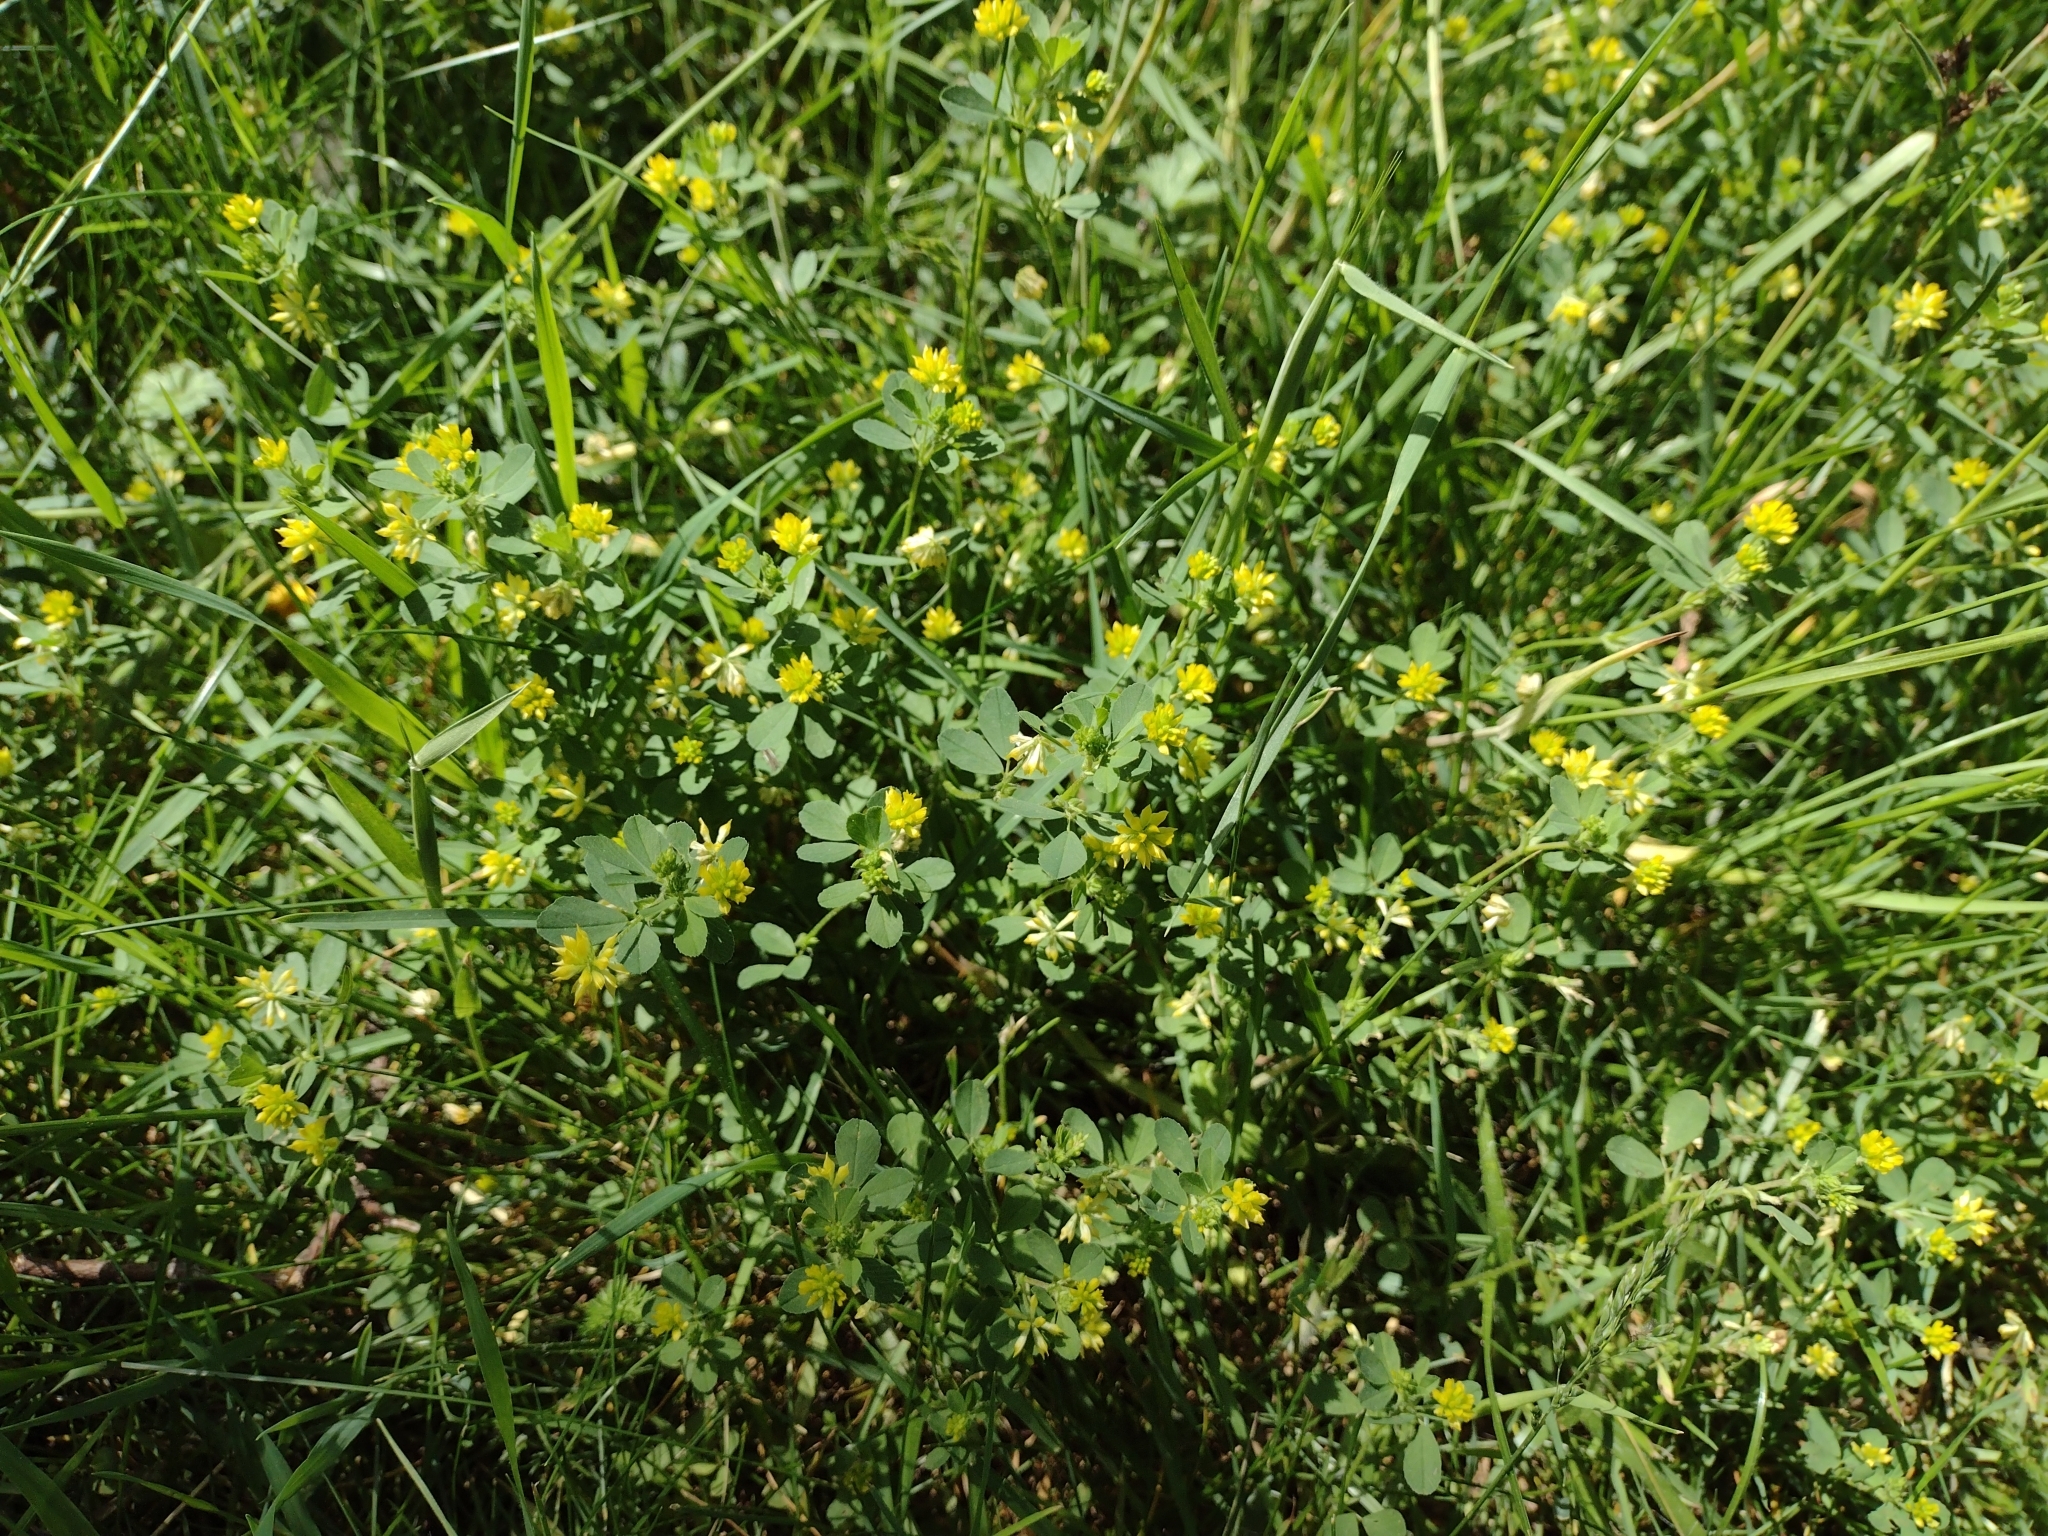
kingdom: Plantae
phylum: Tracheophyta
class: Magnoliopsida
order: Fabales
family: Fabaceae
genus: Trifolium
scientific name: Trifolium dubium
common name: Suckling clover
